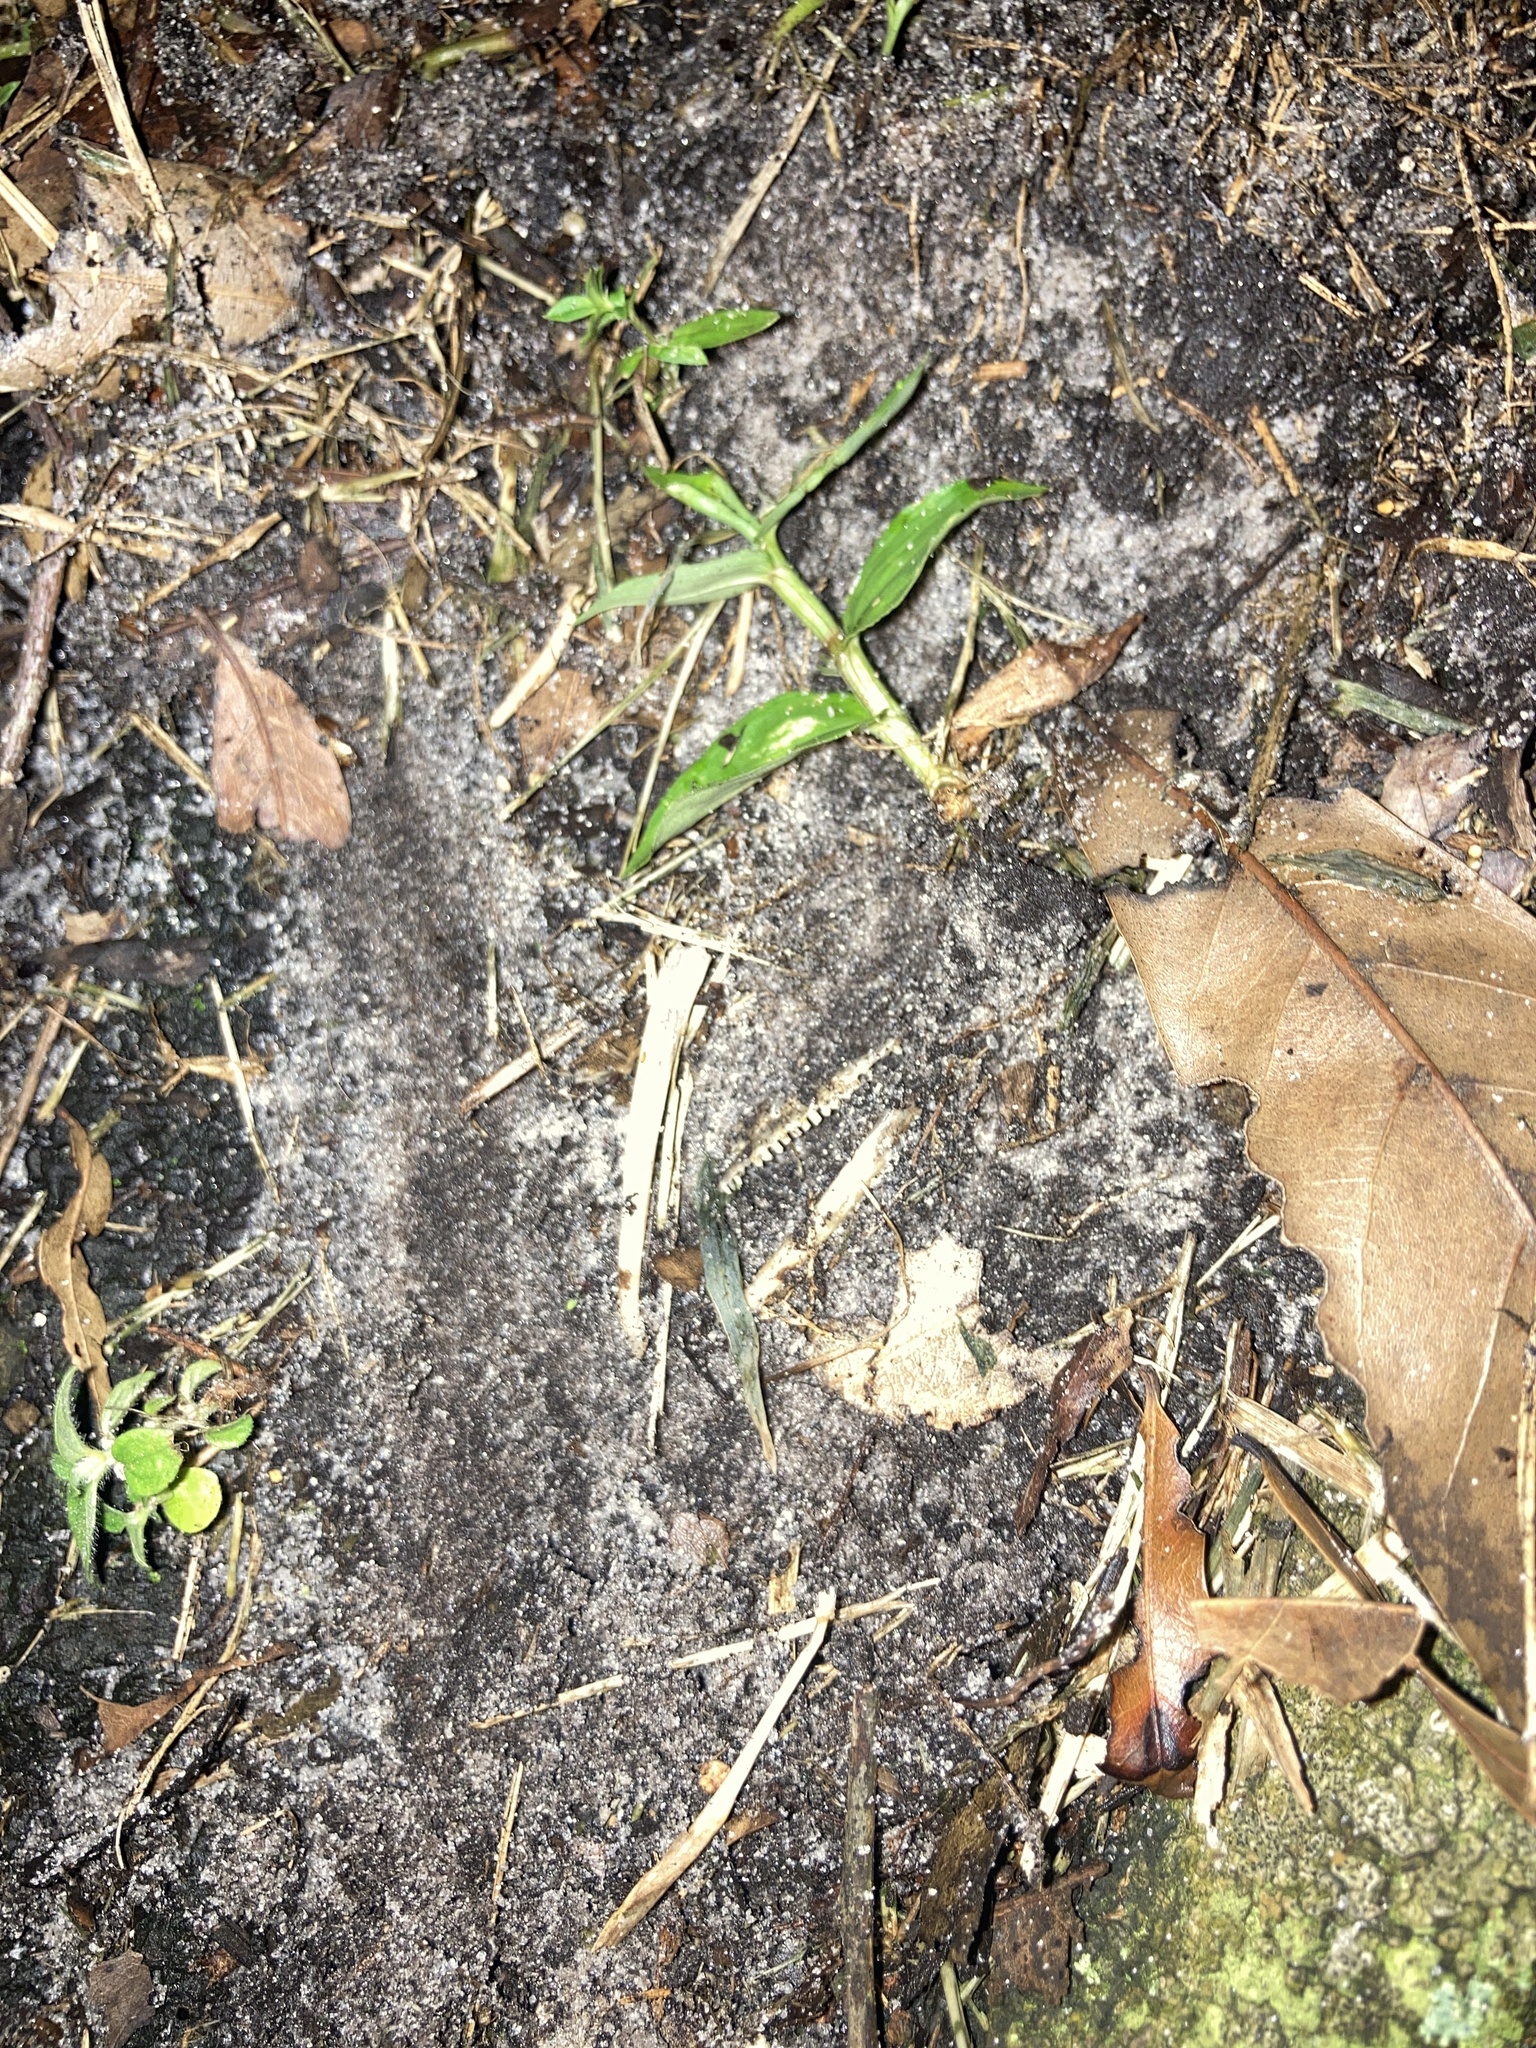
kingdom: Animalia
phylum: Chordata
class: Squamata
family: Dactyloidae
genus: Anolis
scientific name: Anolis equestris
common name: Knight anole
